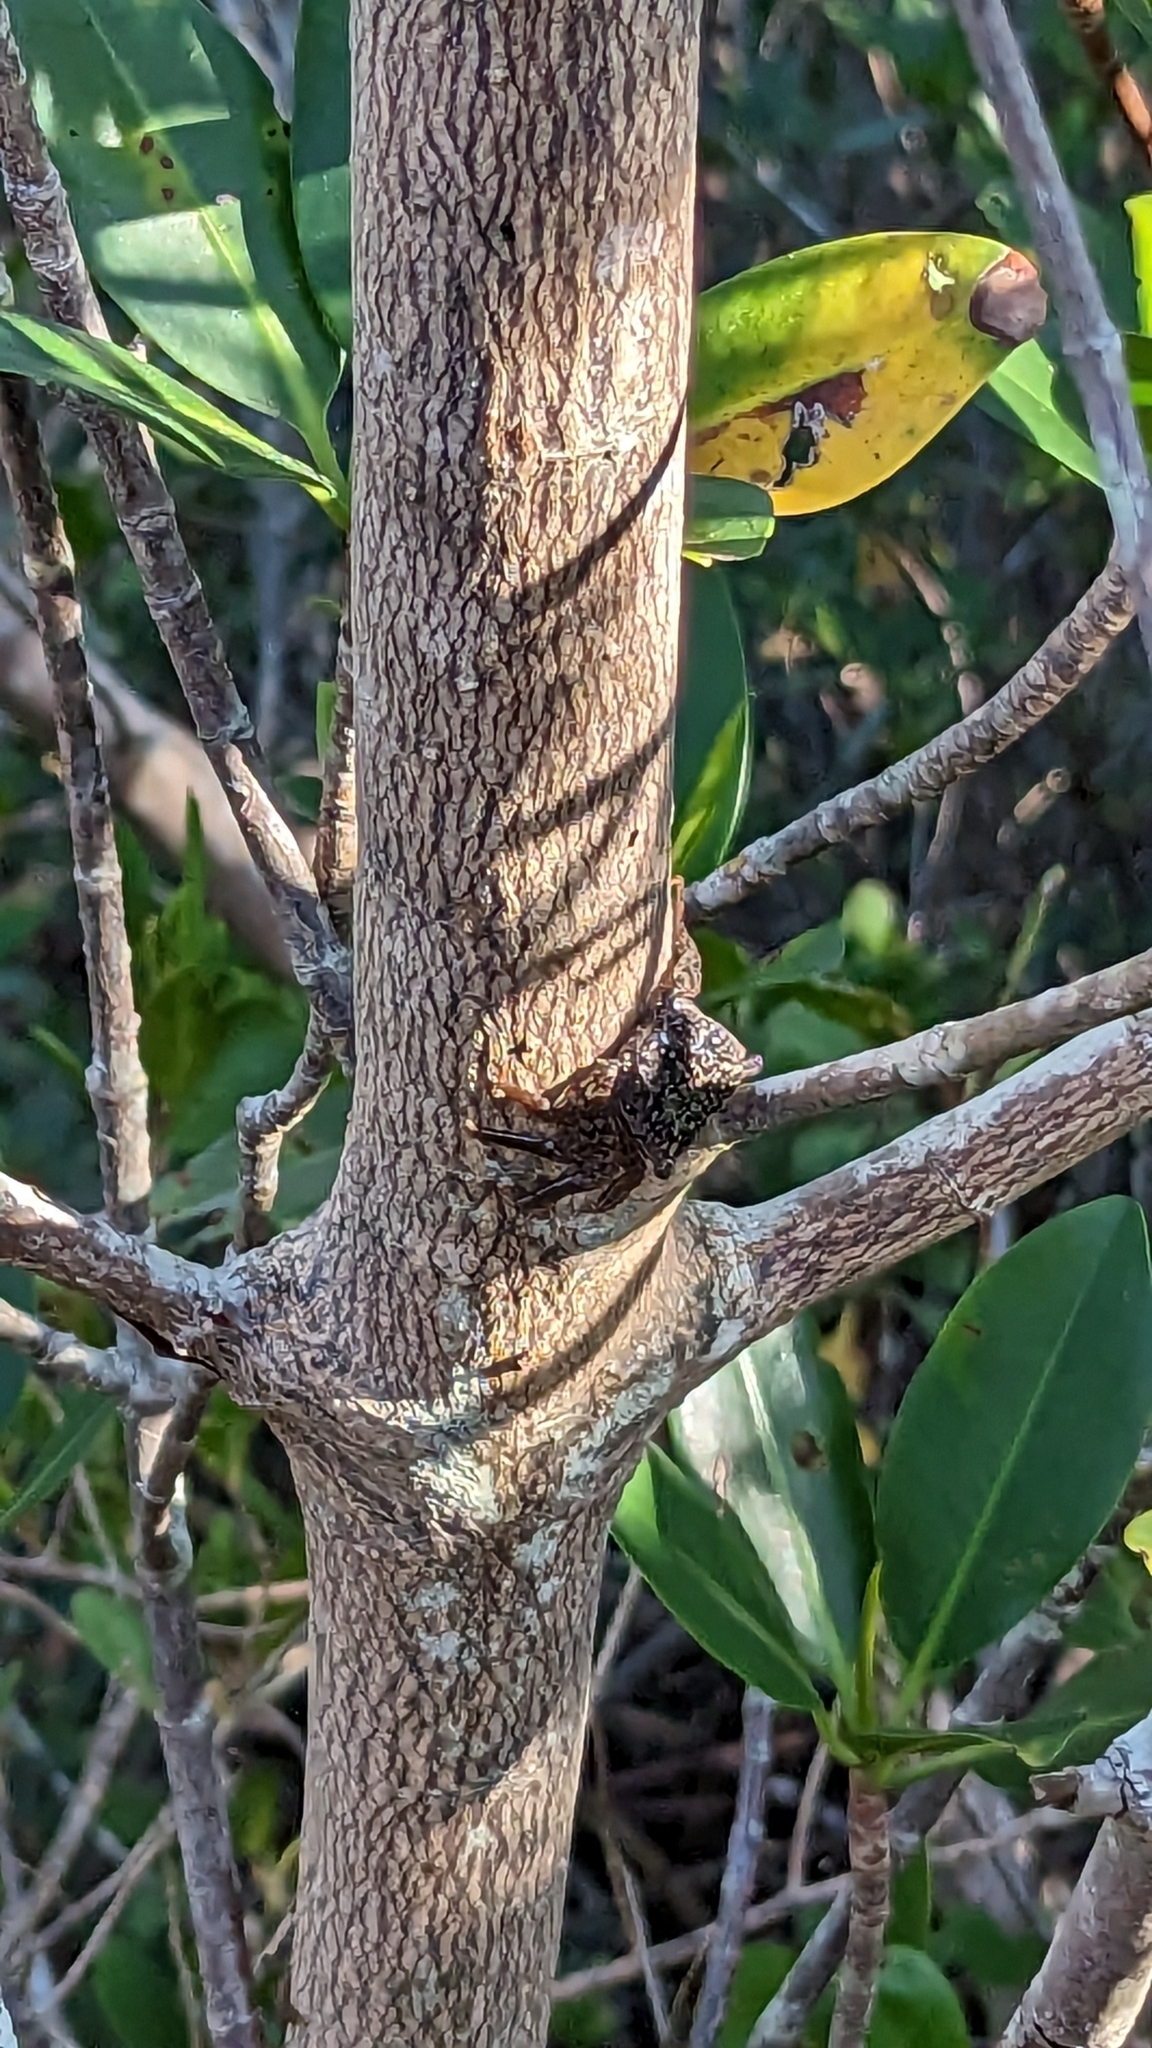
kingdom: Animalia
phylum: Arthropoda
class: Malacostraca
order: Decapoda
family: Sesarmidae
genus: Aratus
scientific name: Aratus pisonii
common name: Mangrove crab
